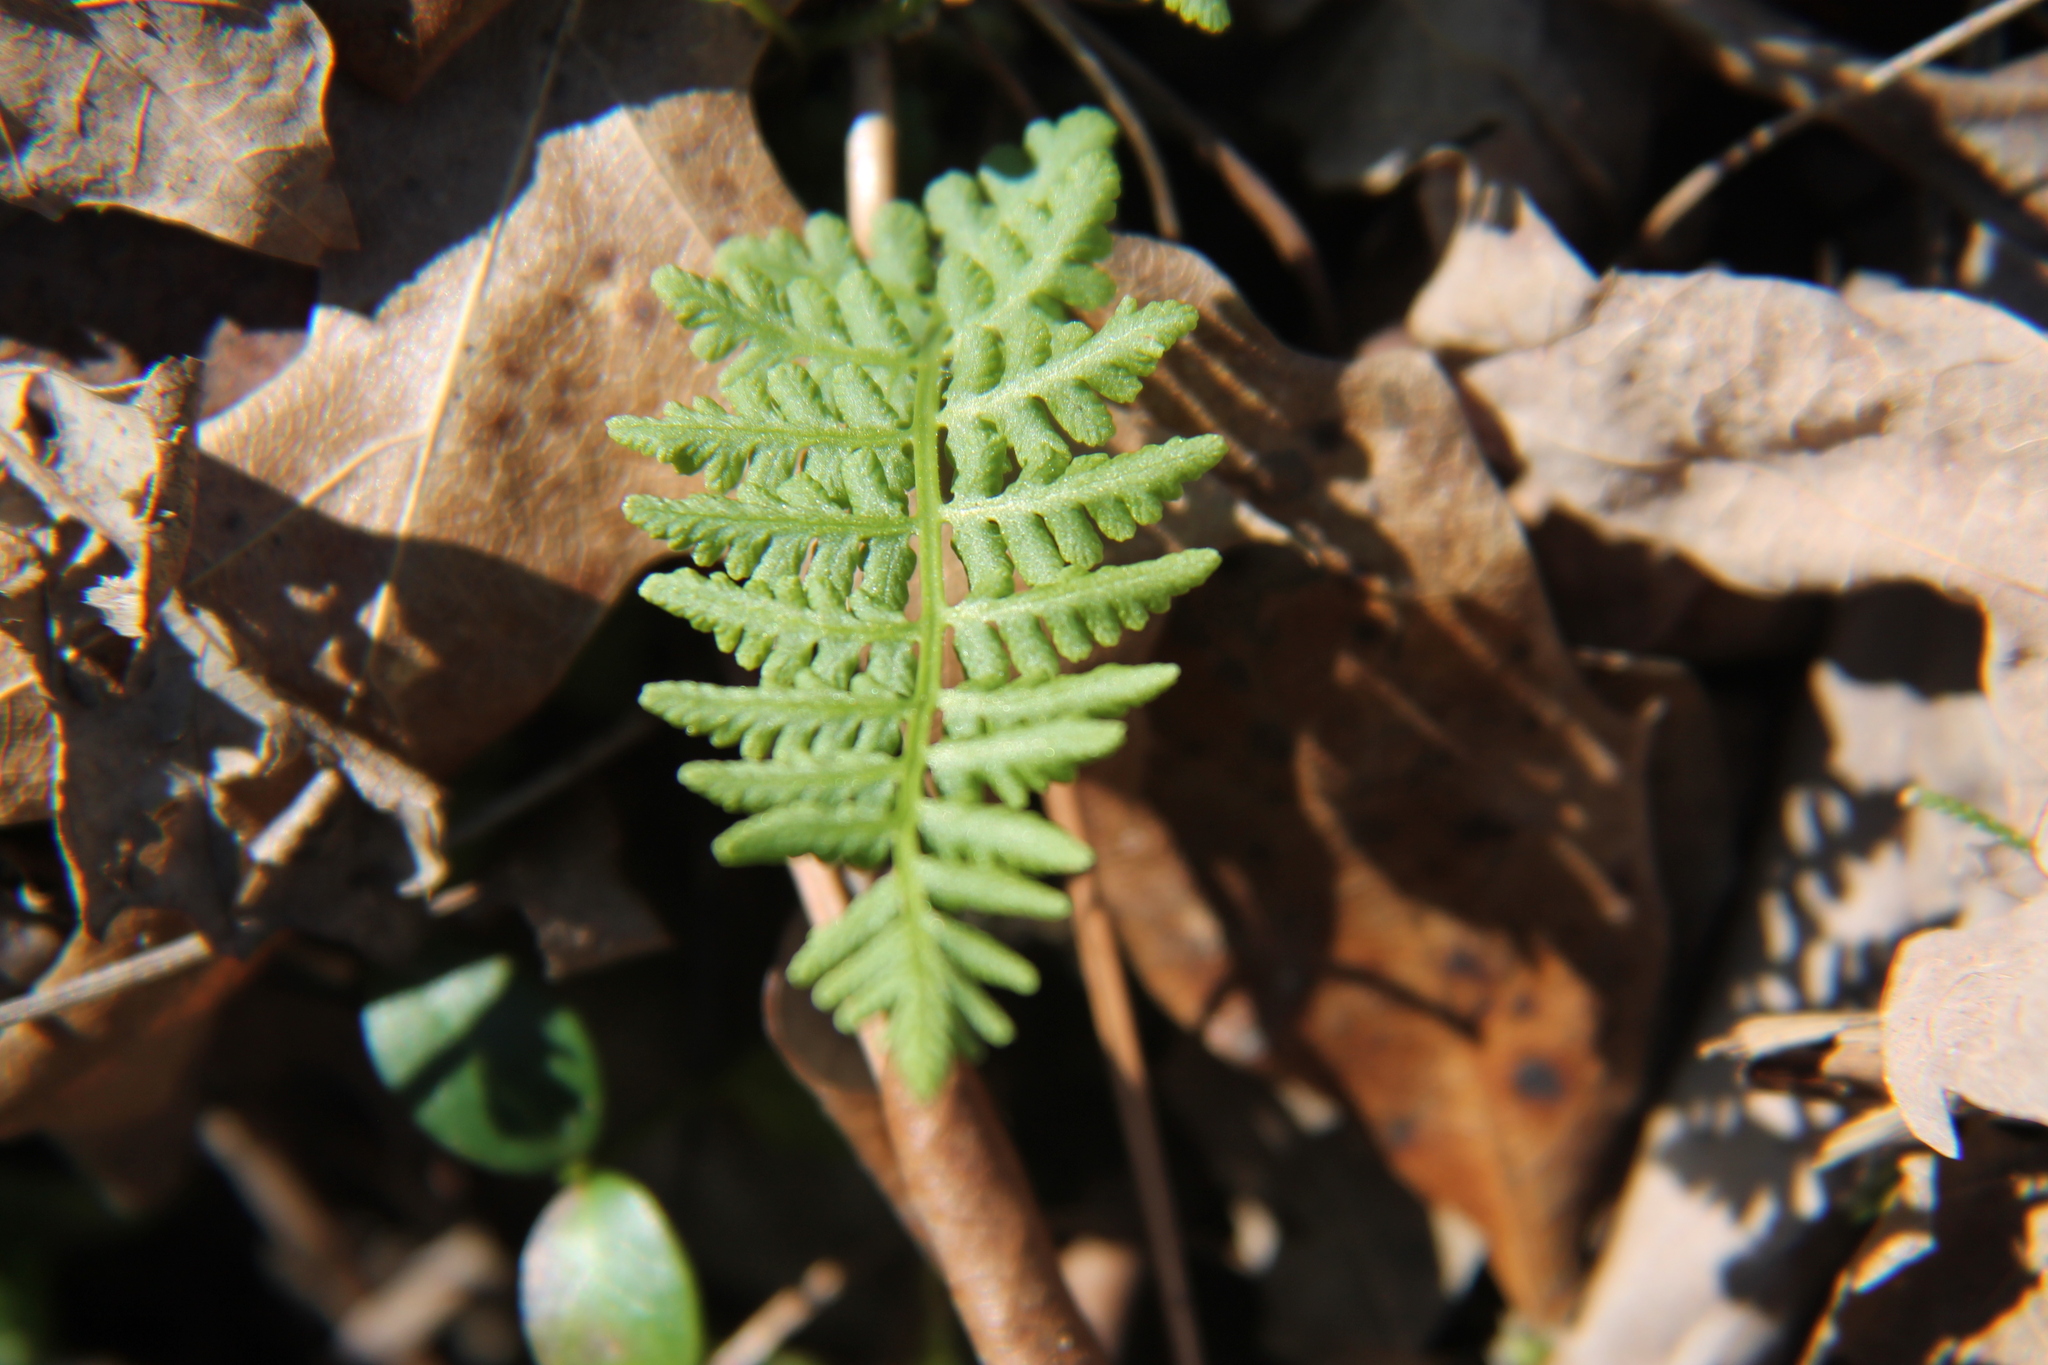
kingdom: Plantae
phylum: Tracheophyta
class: Polypodiopsida
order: Polypodiales
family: Woodsiaceae
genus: Physematium
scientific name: Physematium obtusum
